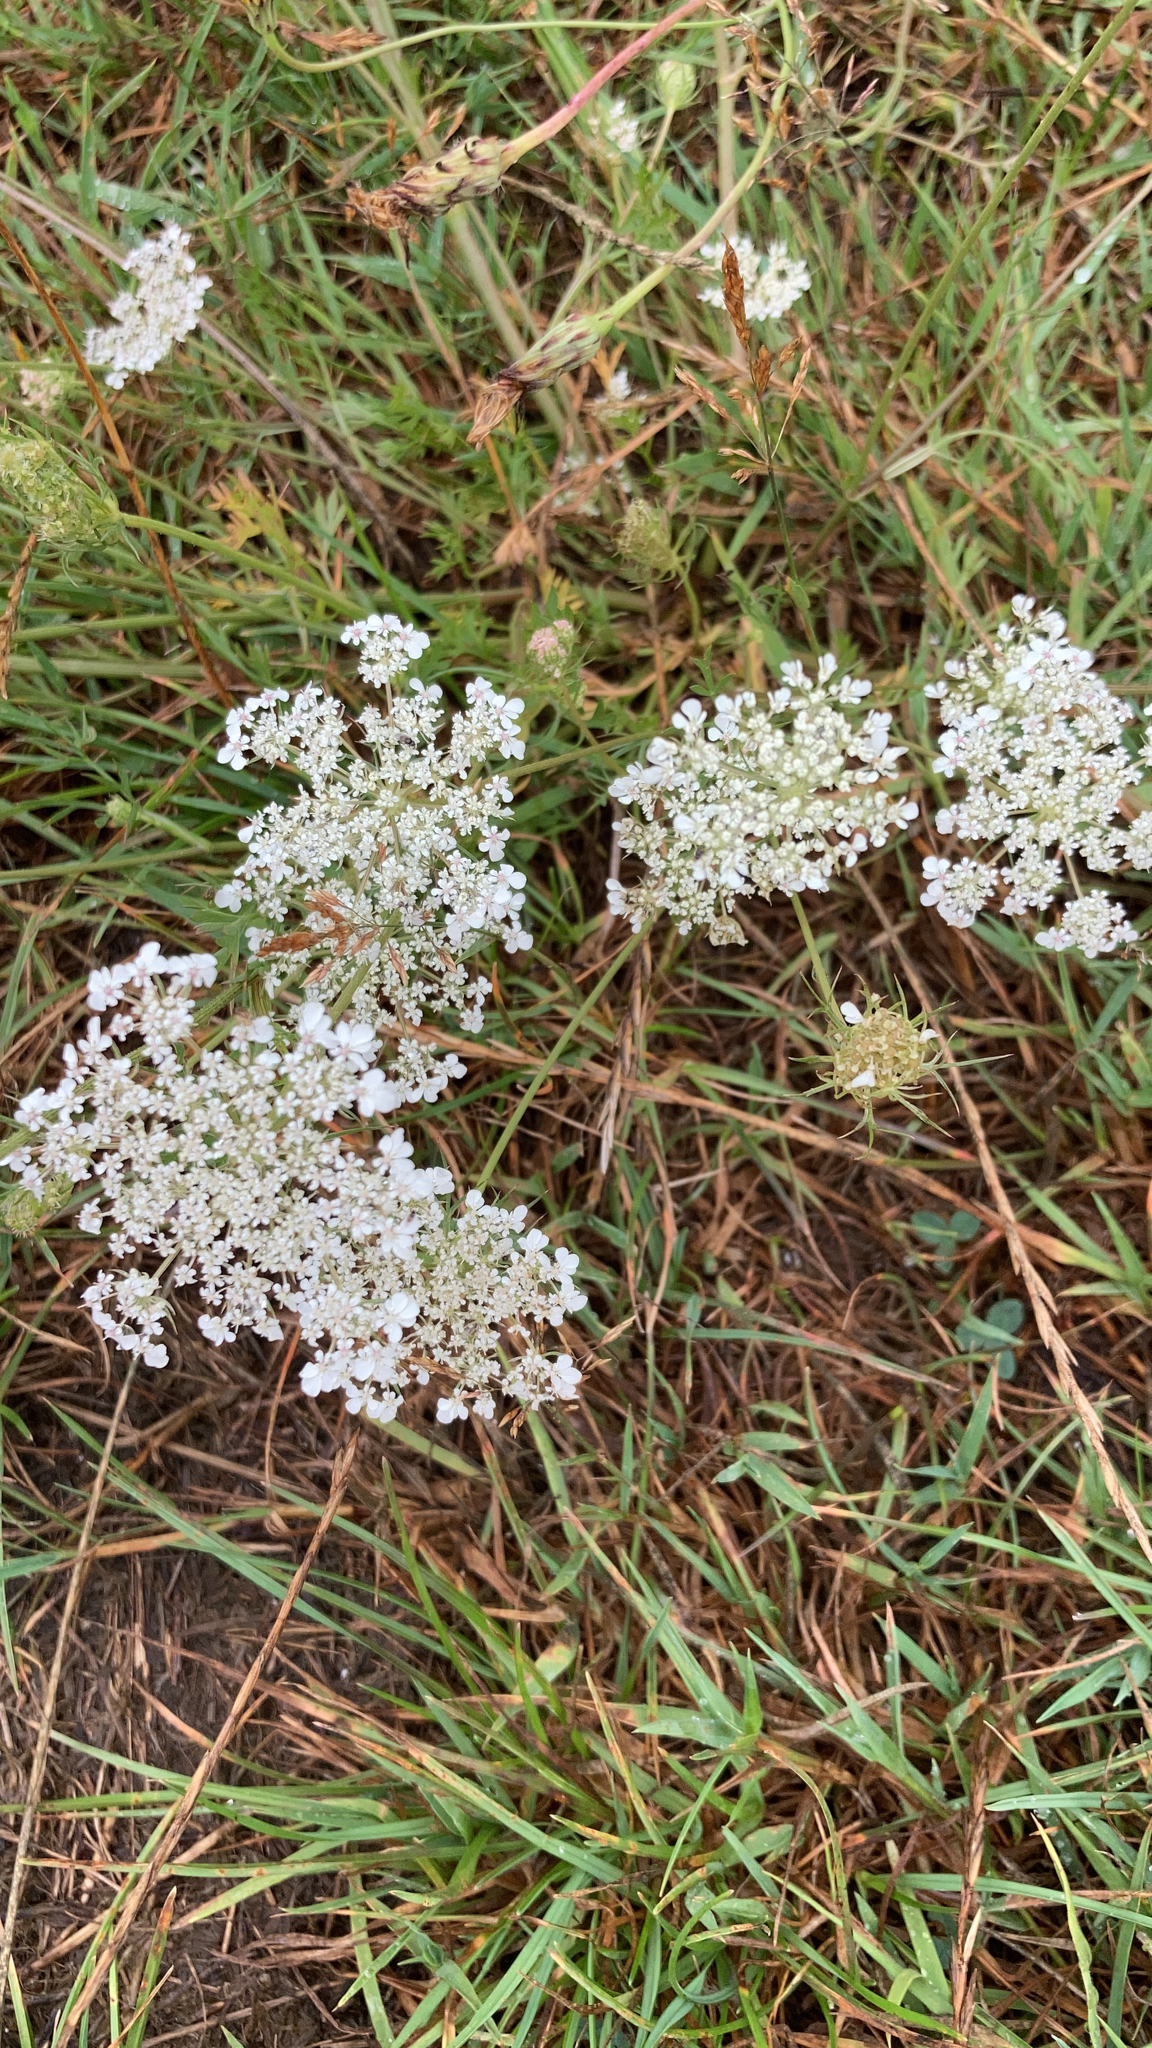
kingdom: Plantae
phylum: Tracheophyta
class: Magnoliopsida
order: Apiales
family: Apiaceae
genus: Daucus
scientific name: Daucus carota
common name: Wild carrot
